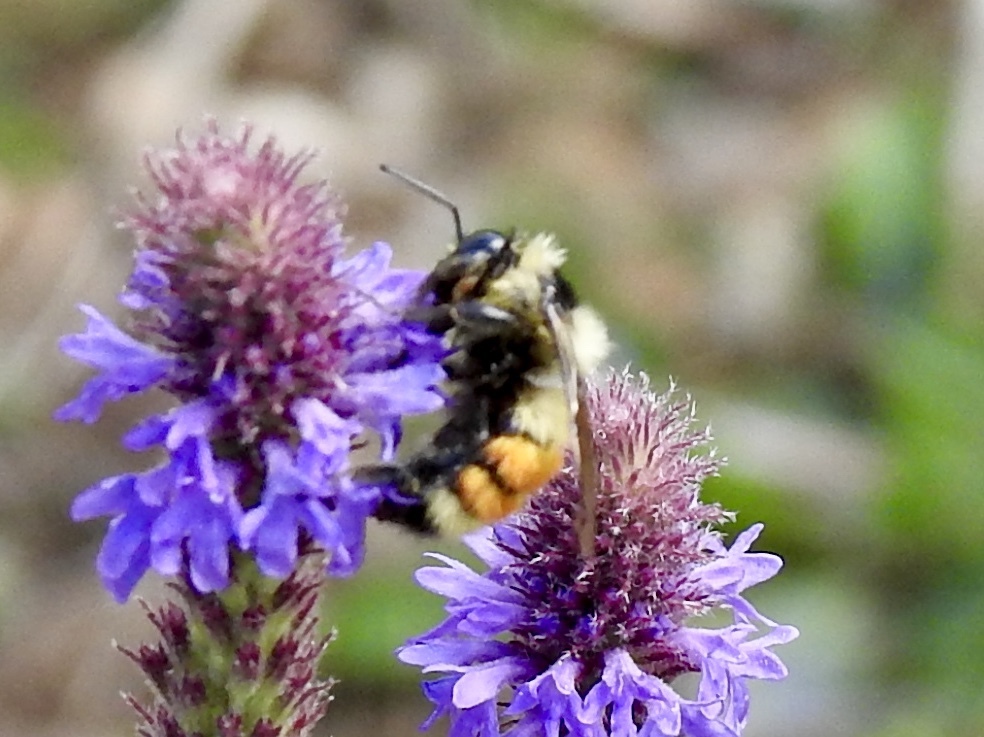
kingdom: Animalia
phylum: Arthropoda
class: Insecta
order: Hymenoptera
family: Apidae
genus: Bombus
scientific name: Bombus huntii
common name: Hunt bumble bee
